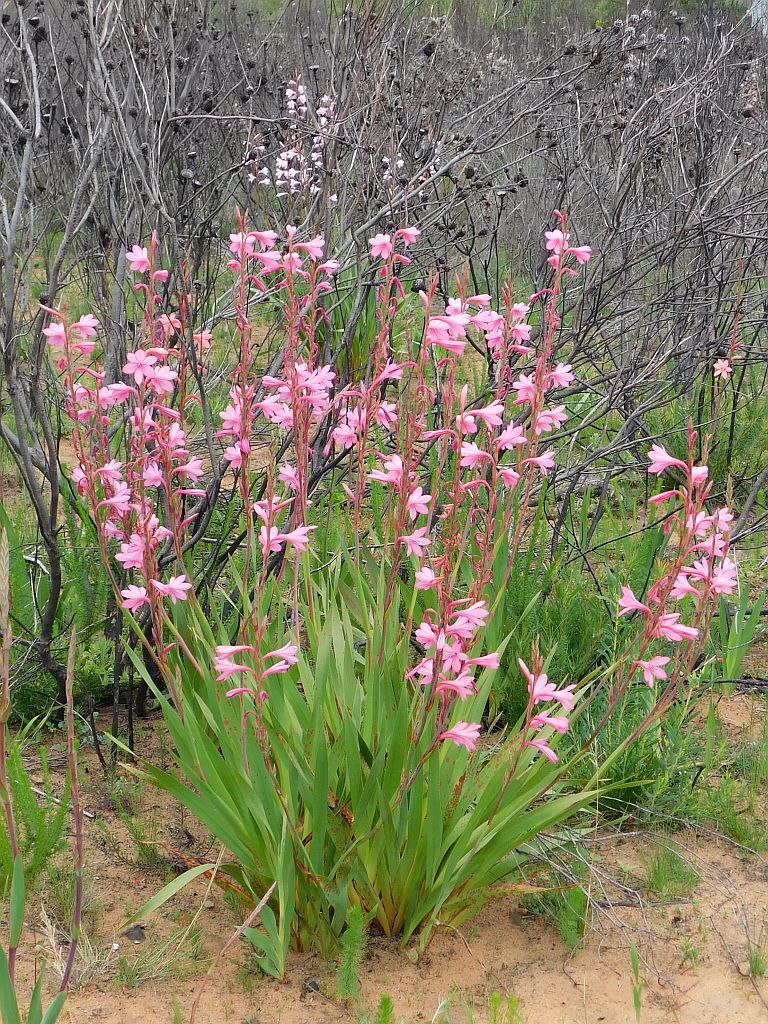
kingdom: Plantae
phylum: Tracheophyta
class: Liliopsida
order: Asparagales
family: Iridaceae
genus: Watsonia
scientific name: Watsonia borbonica
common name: Bugle-lily
